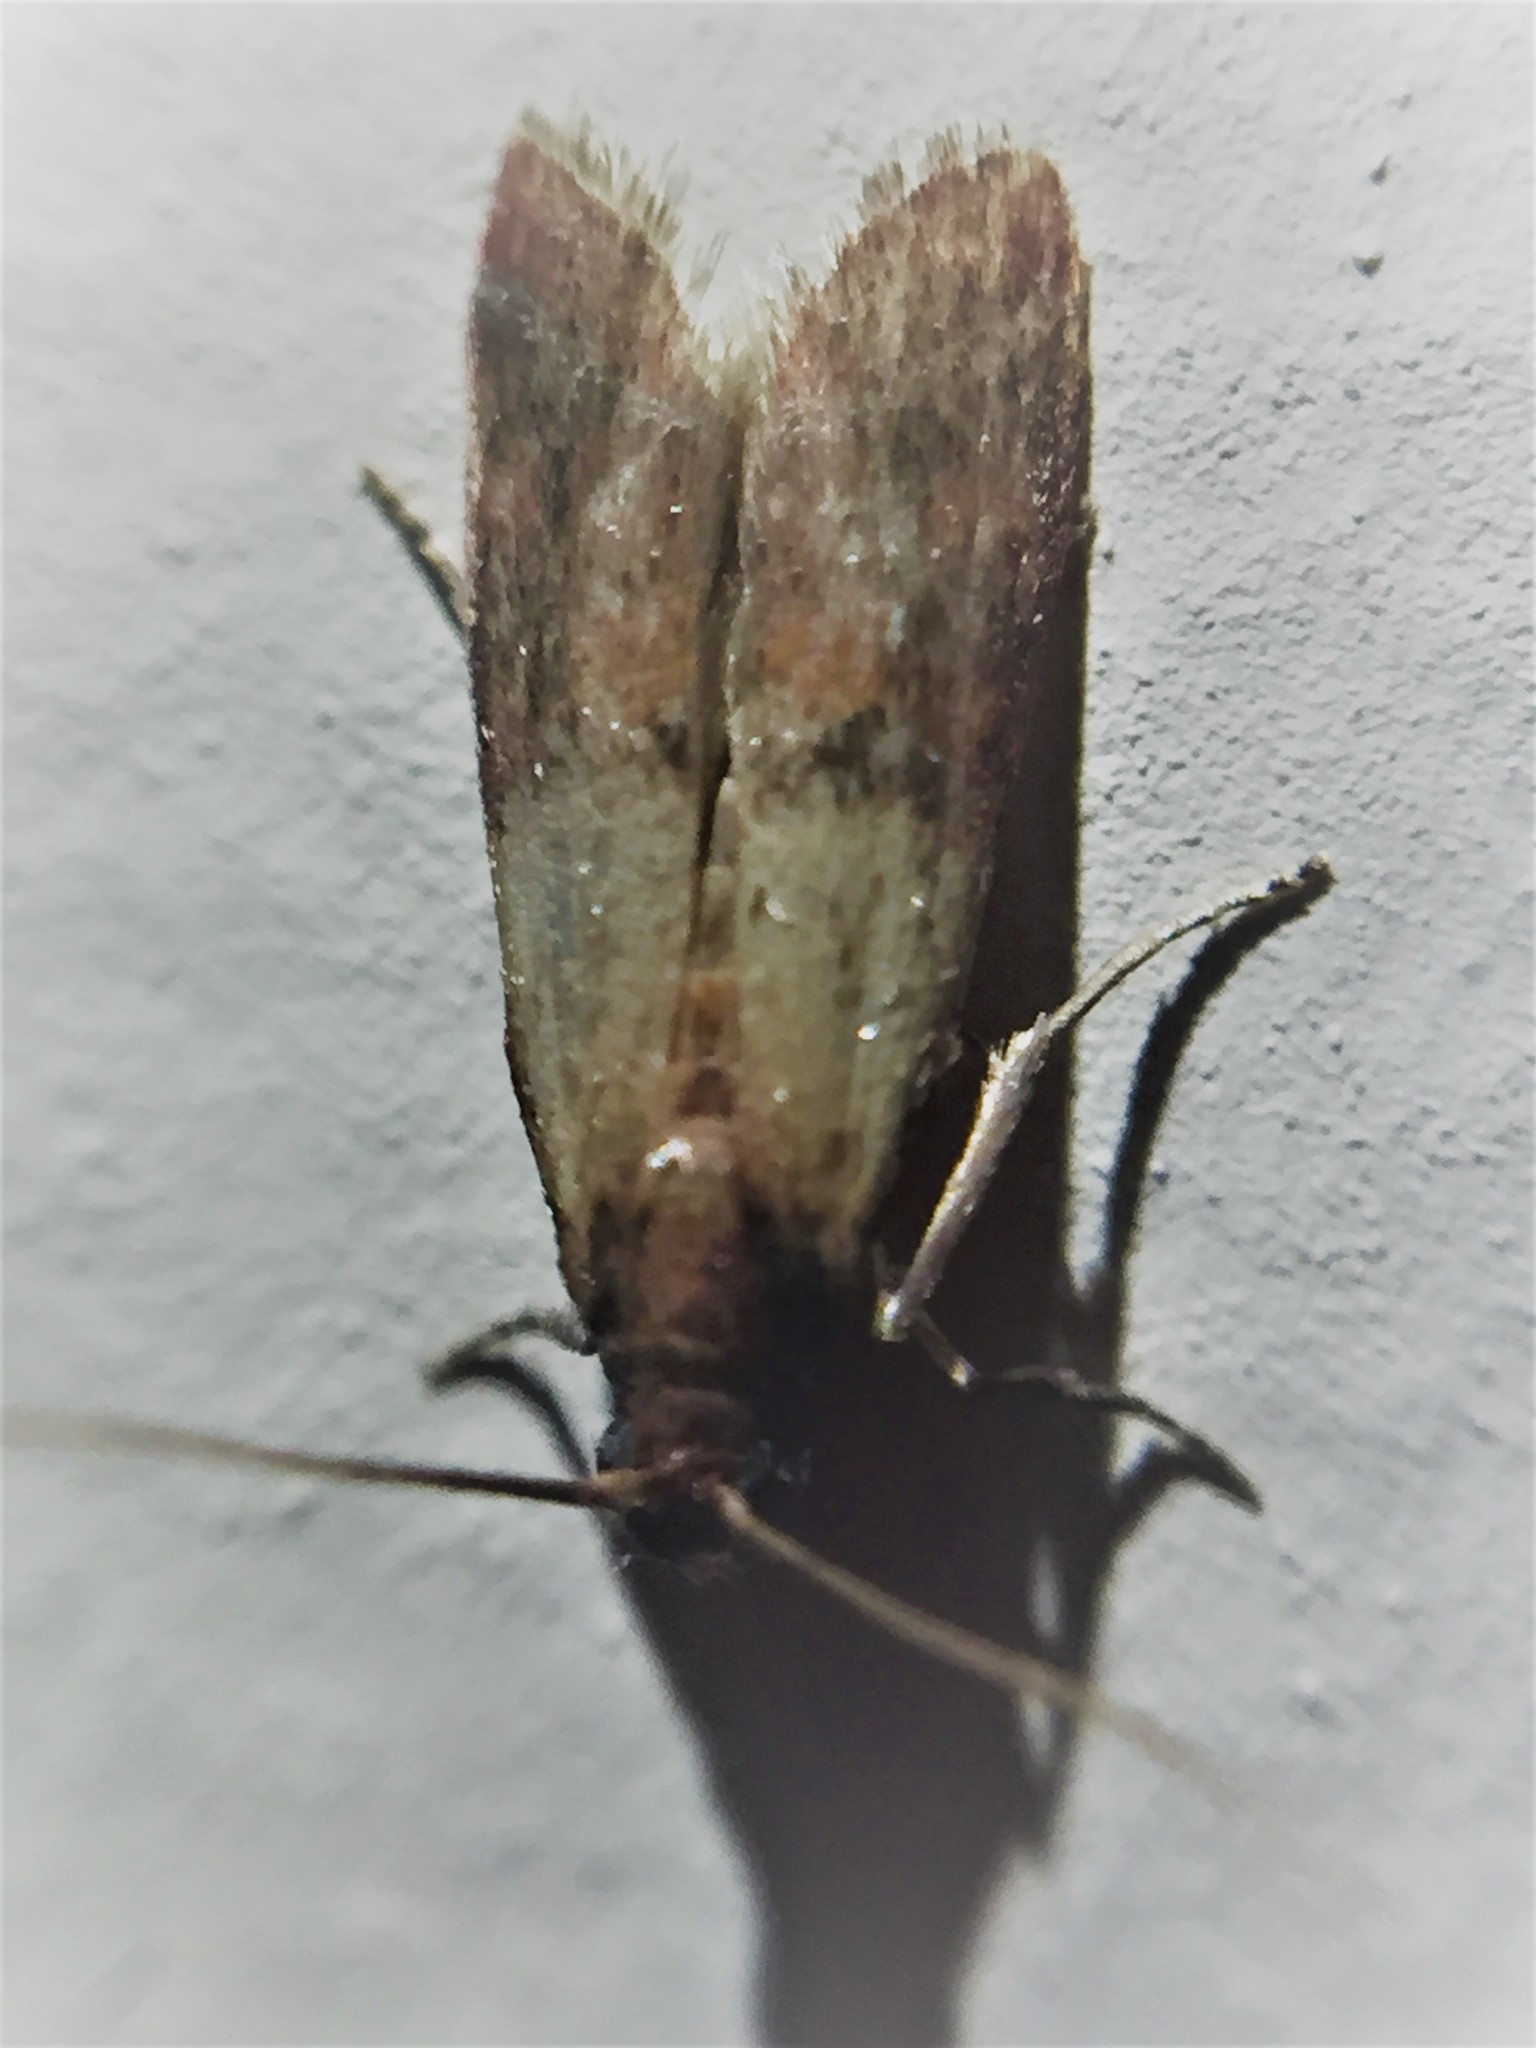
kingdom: Animalia
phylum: Arthropoda
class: Insecta
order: Lepidoptera
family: Pyralidae
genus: Plodia
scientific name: Plodia interpunctella
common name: Indian meal moth
